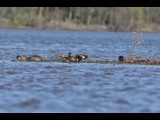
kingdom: Animalia
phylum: Chordata
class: Aves
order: Anseriformes
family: Anatidae
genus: Spatula
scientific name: Spatula discors
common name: Blue-winged teal
